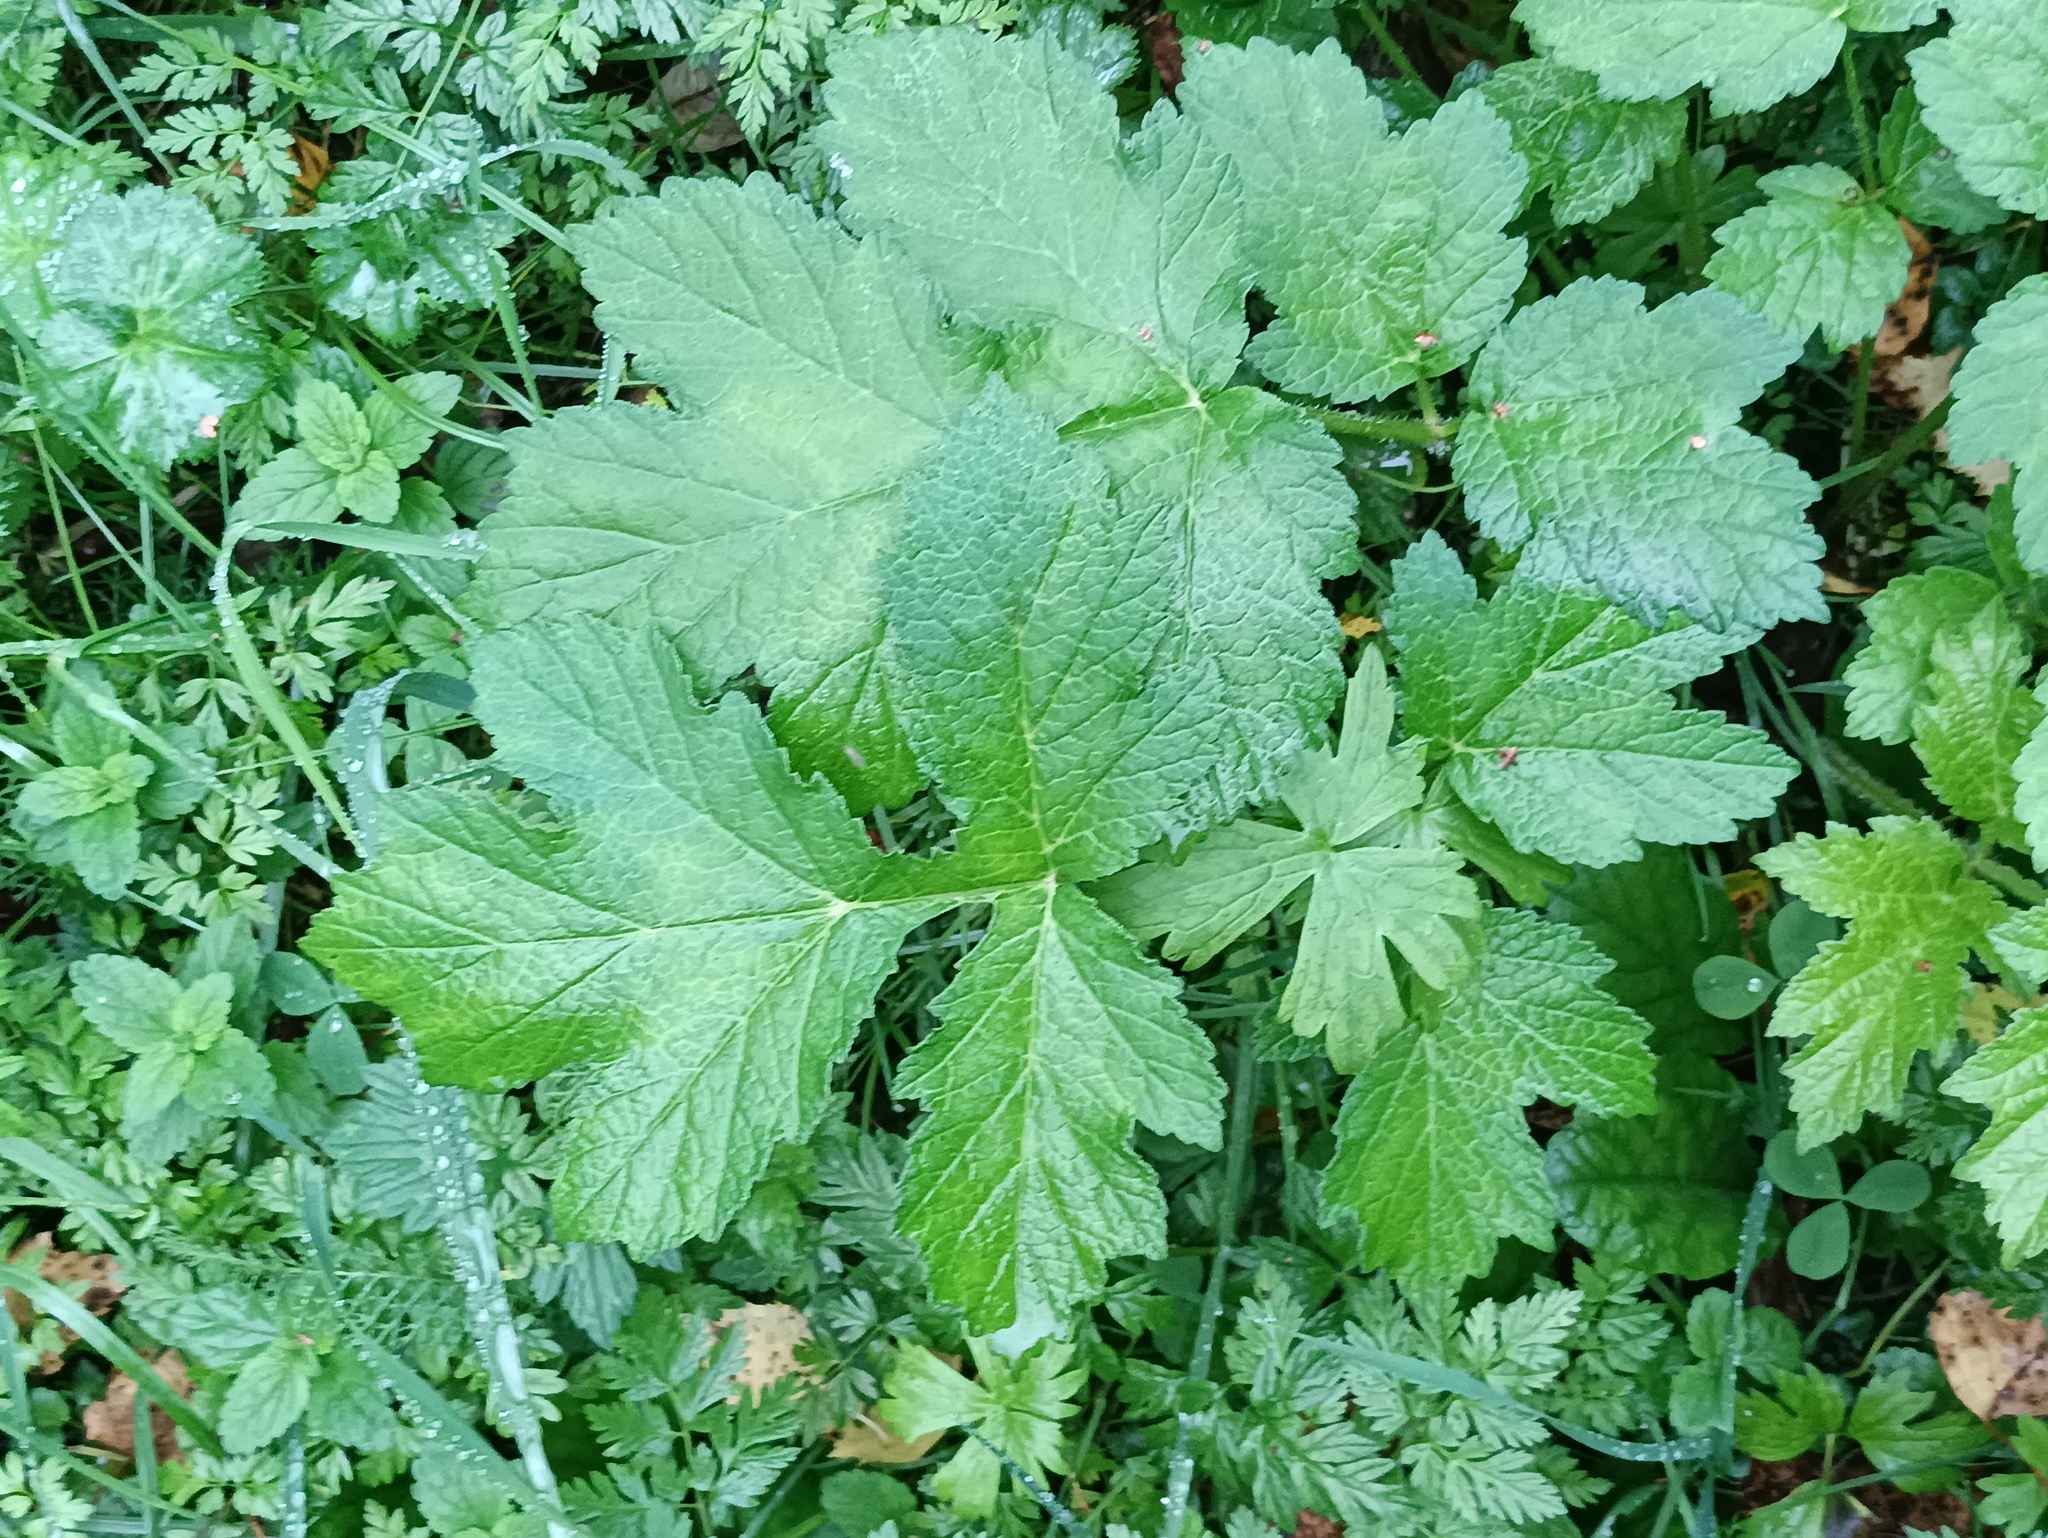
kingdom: Plantae
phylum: Tracheophyta
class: Magnoliopsida
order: Apiales
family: Apiaceae
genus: Heracleum
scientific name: Heracleum sphondylium
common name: Hogweed
